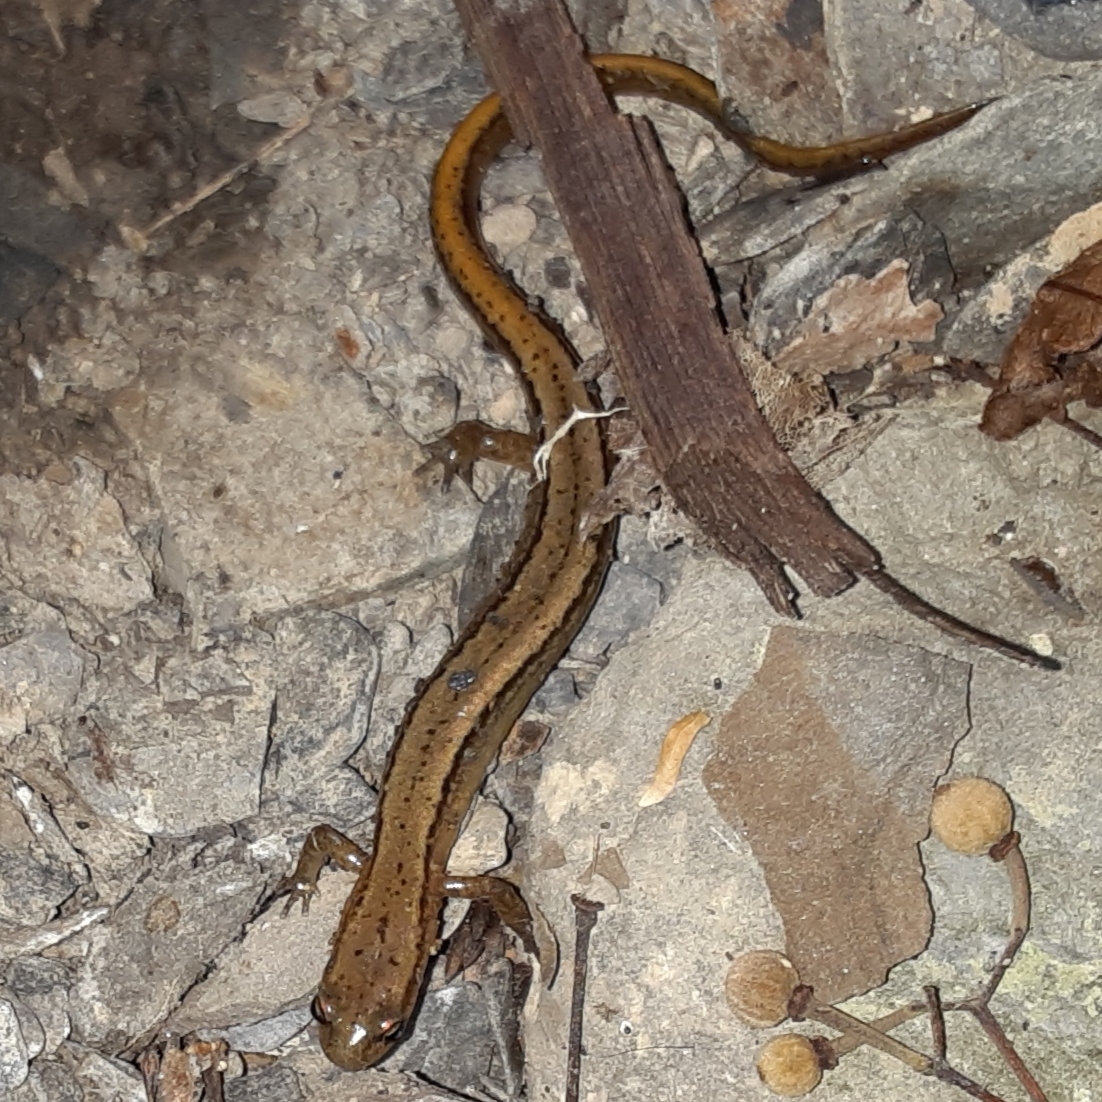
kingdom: Animalia
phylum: Chordata
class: Amphibia
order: Caudata
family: Plethodontidae
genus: Eurycea
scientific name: Eurycea bislineata
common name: Northern two-lined salamander
